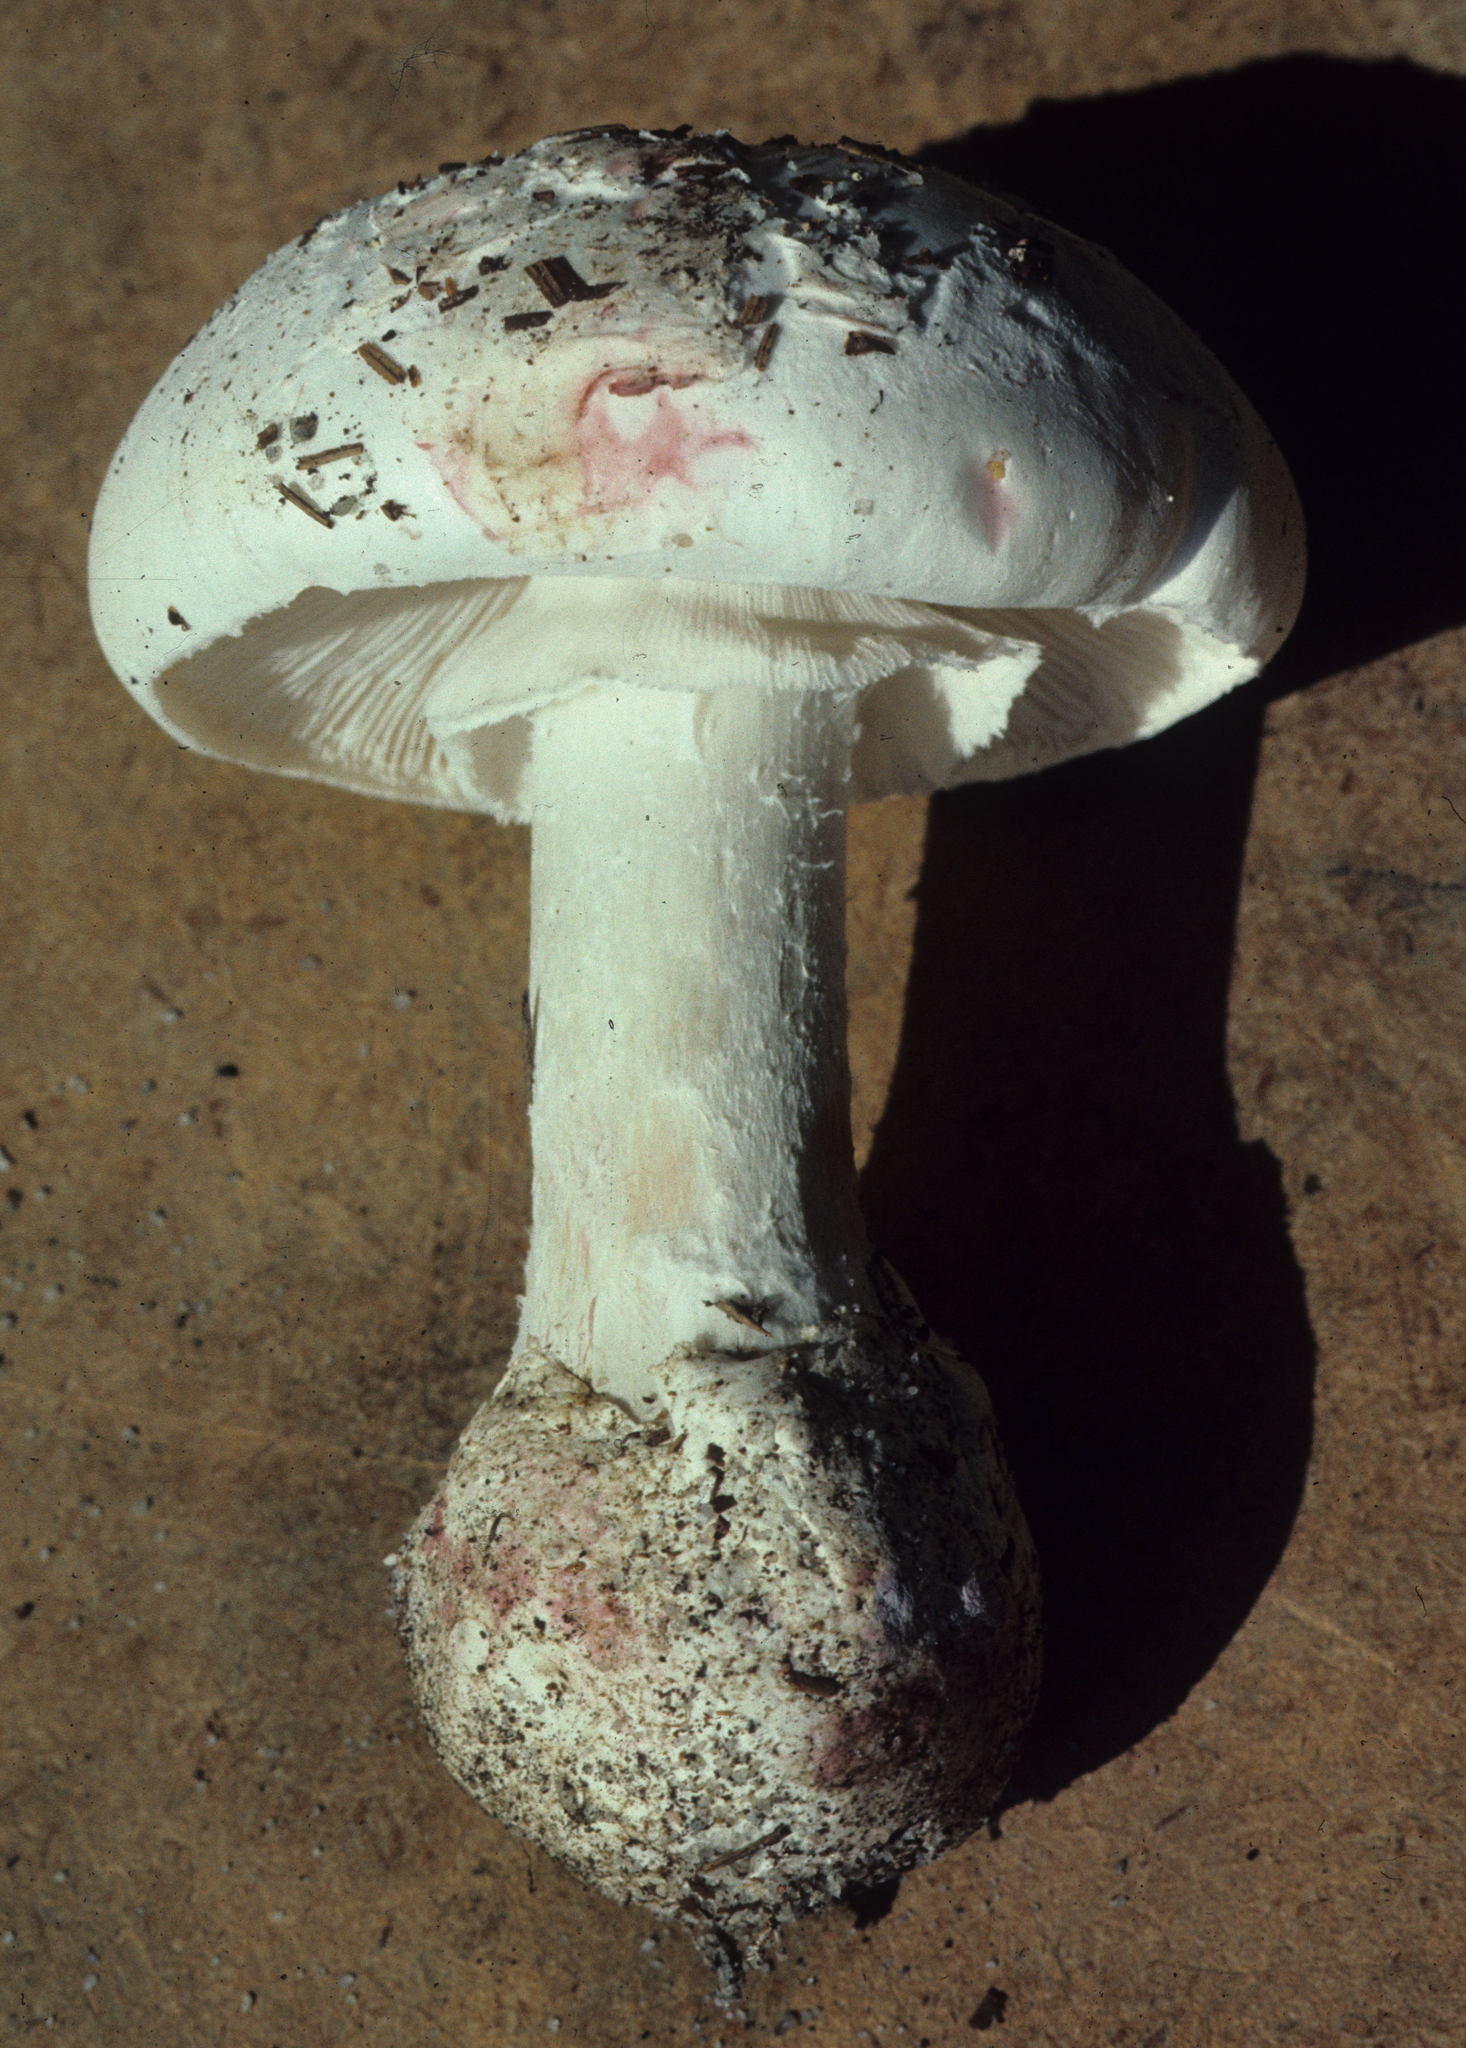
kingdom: Fungi
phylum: Basidiomycota
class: Agaricomycetes
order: Agaricales
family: Amanitaceae
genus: Amanita
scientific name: Amanita mutabilis
